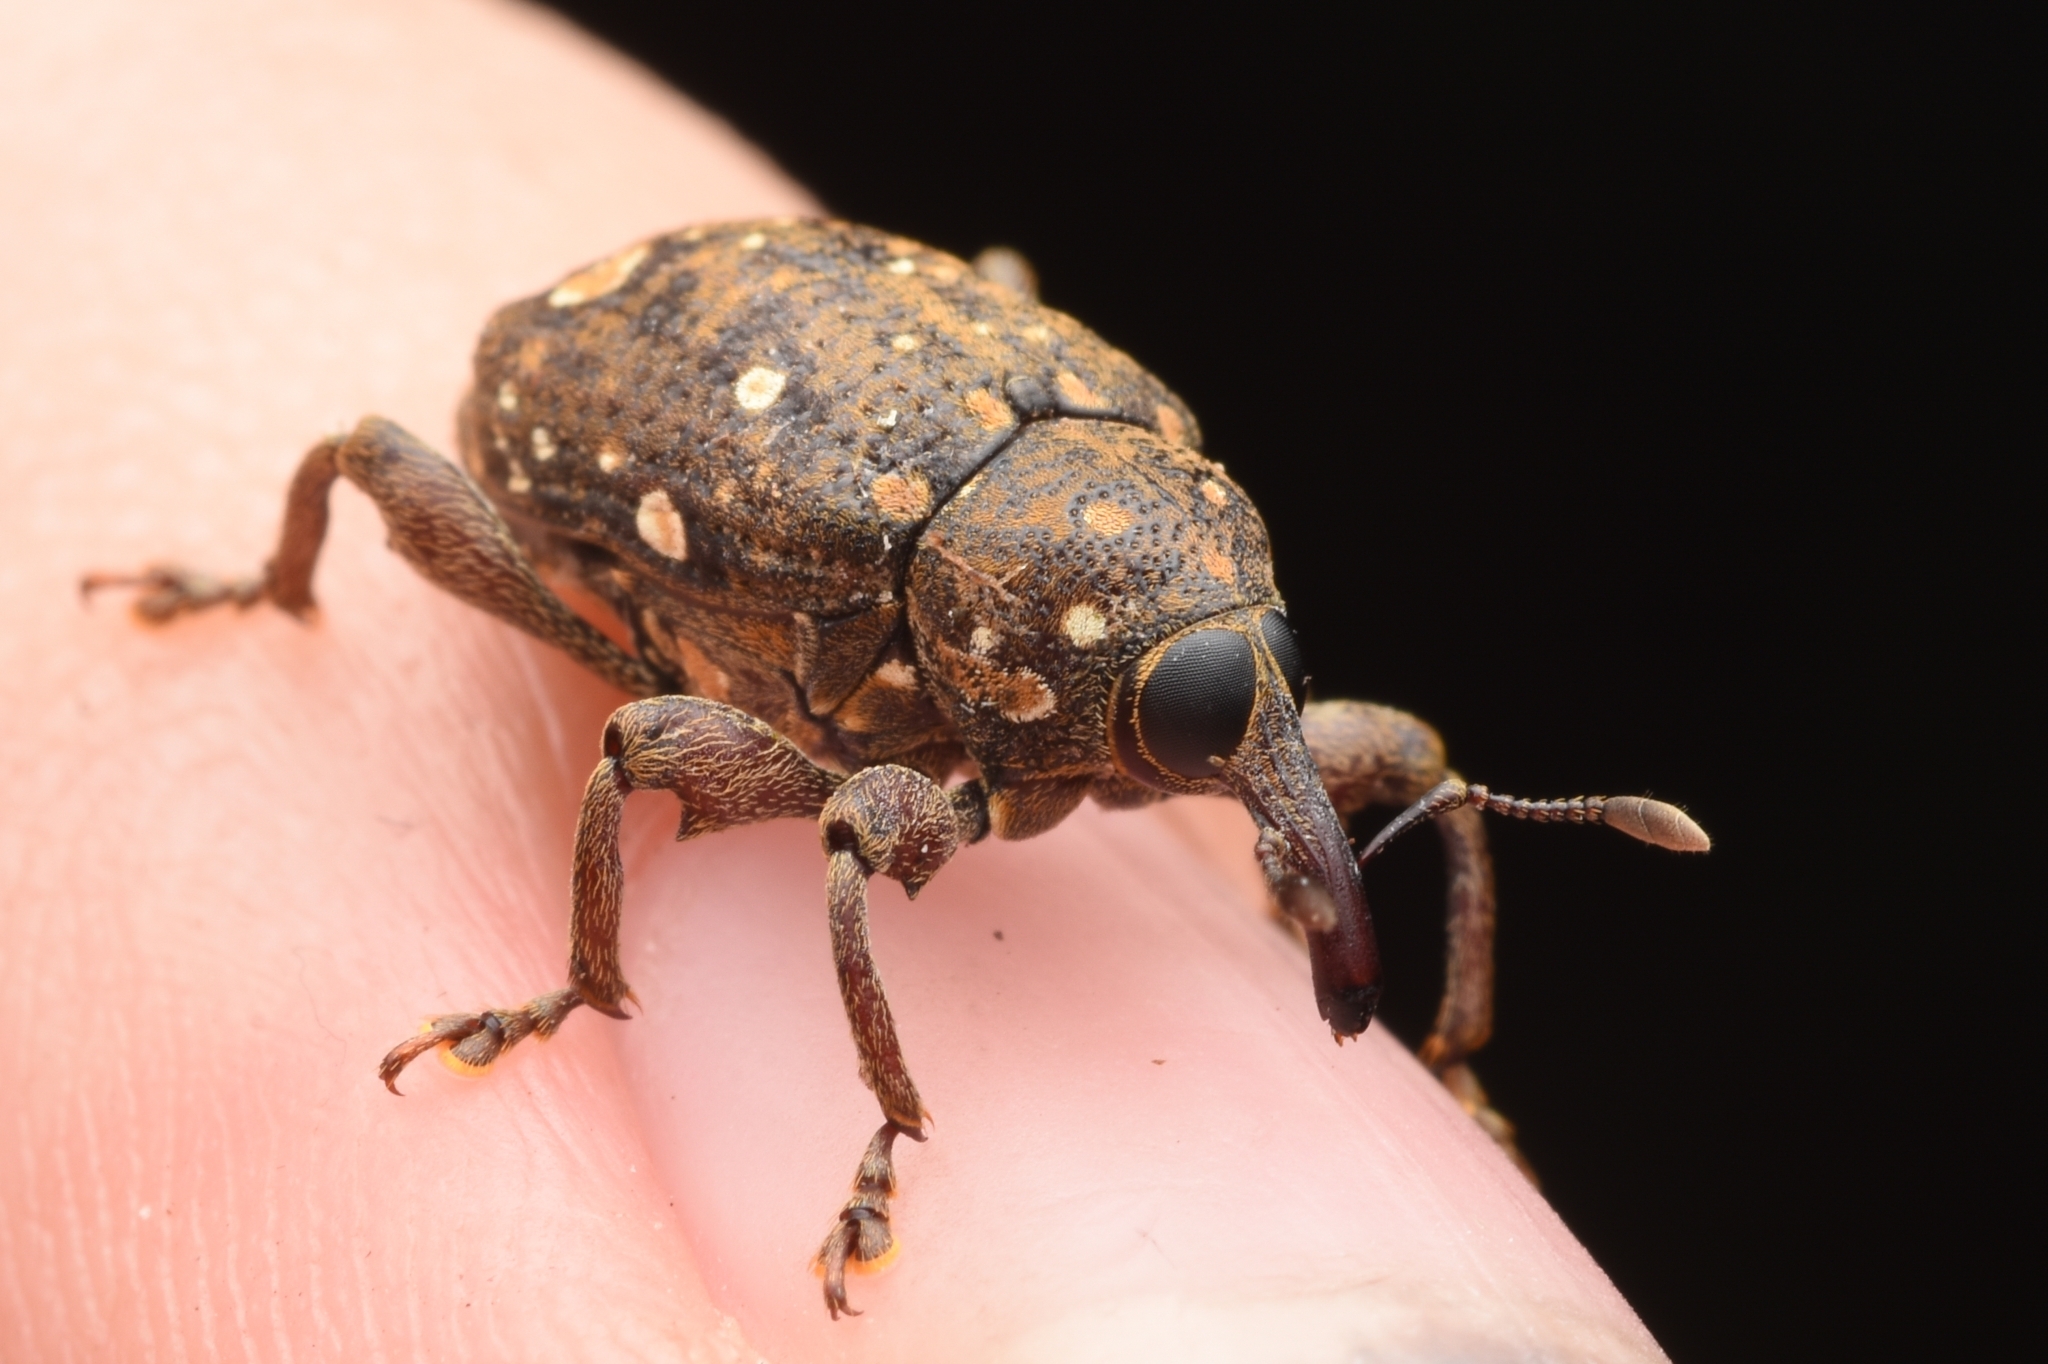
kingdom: Animalia
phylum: Arthropoda
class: Insecta
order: Coleoptera
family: Curculionidae
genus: Marshallius
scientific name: Marshallius
